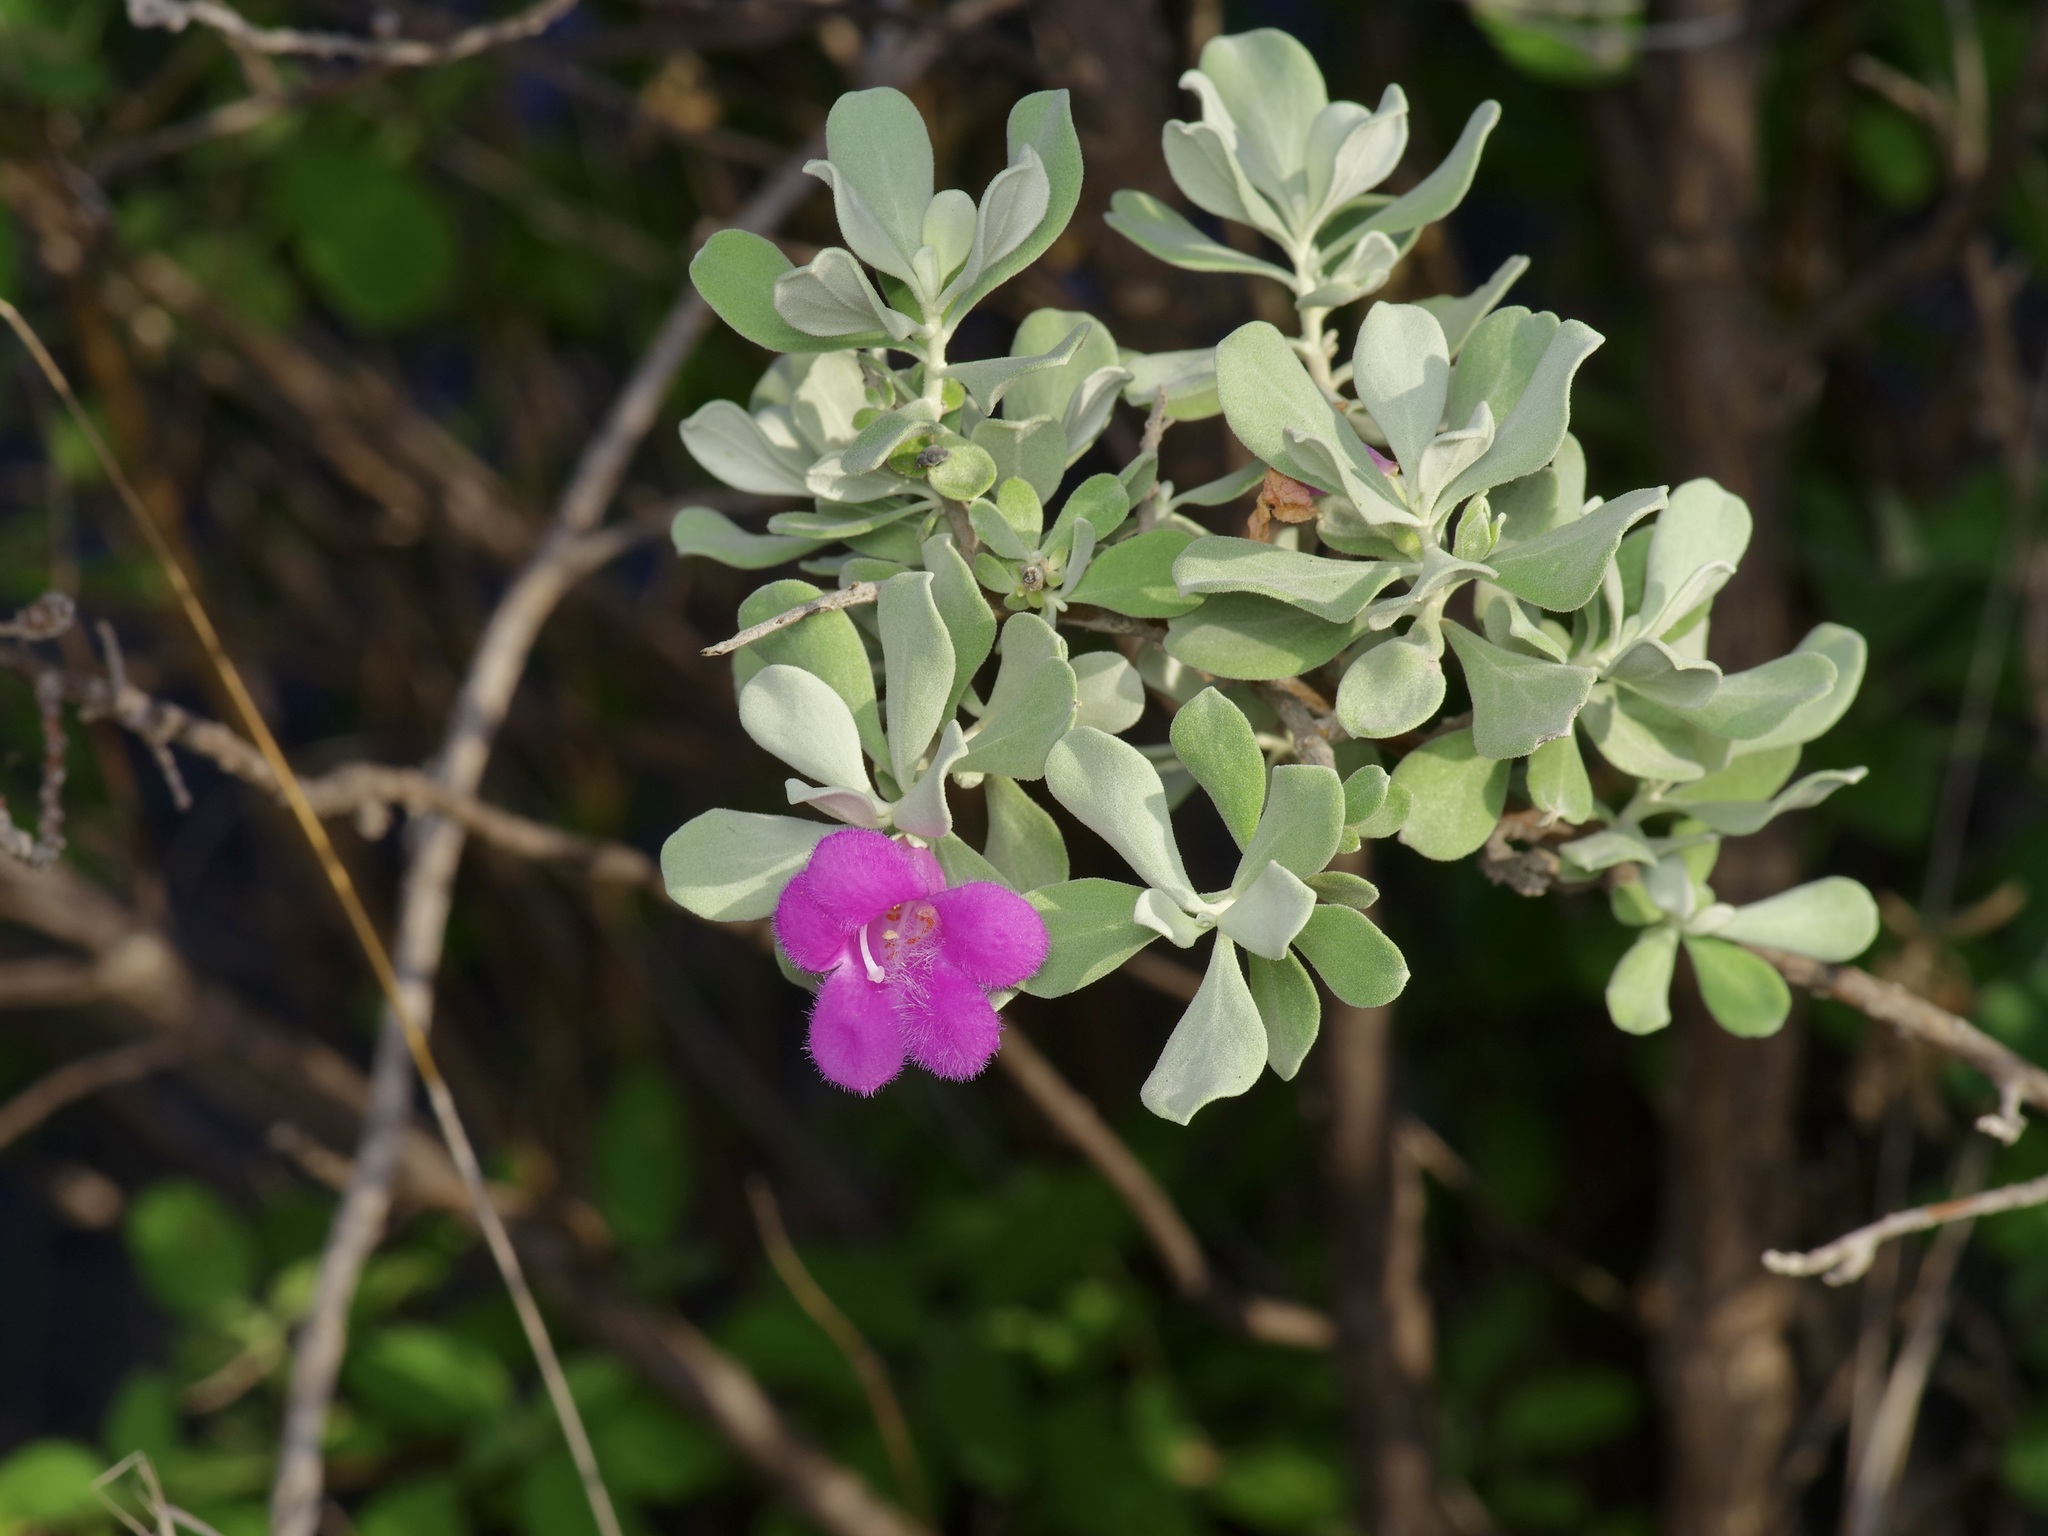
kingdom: Plantae
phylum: Tracheophyta
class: Magnoliopsida
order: Lamiales
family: Scrophulariaceae
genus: Leucophyllum
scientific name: Leucophyllum frutescens
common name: Texas silverleaf
